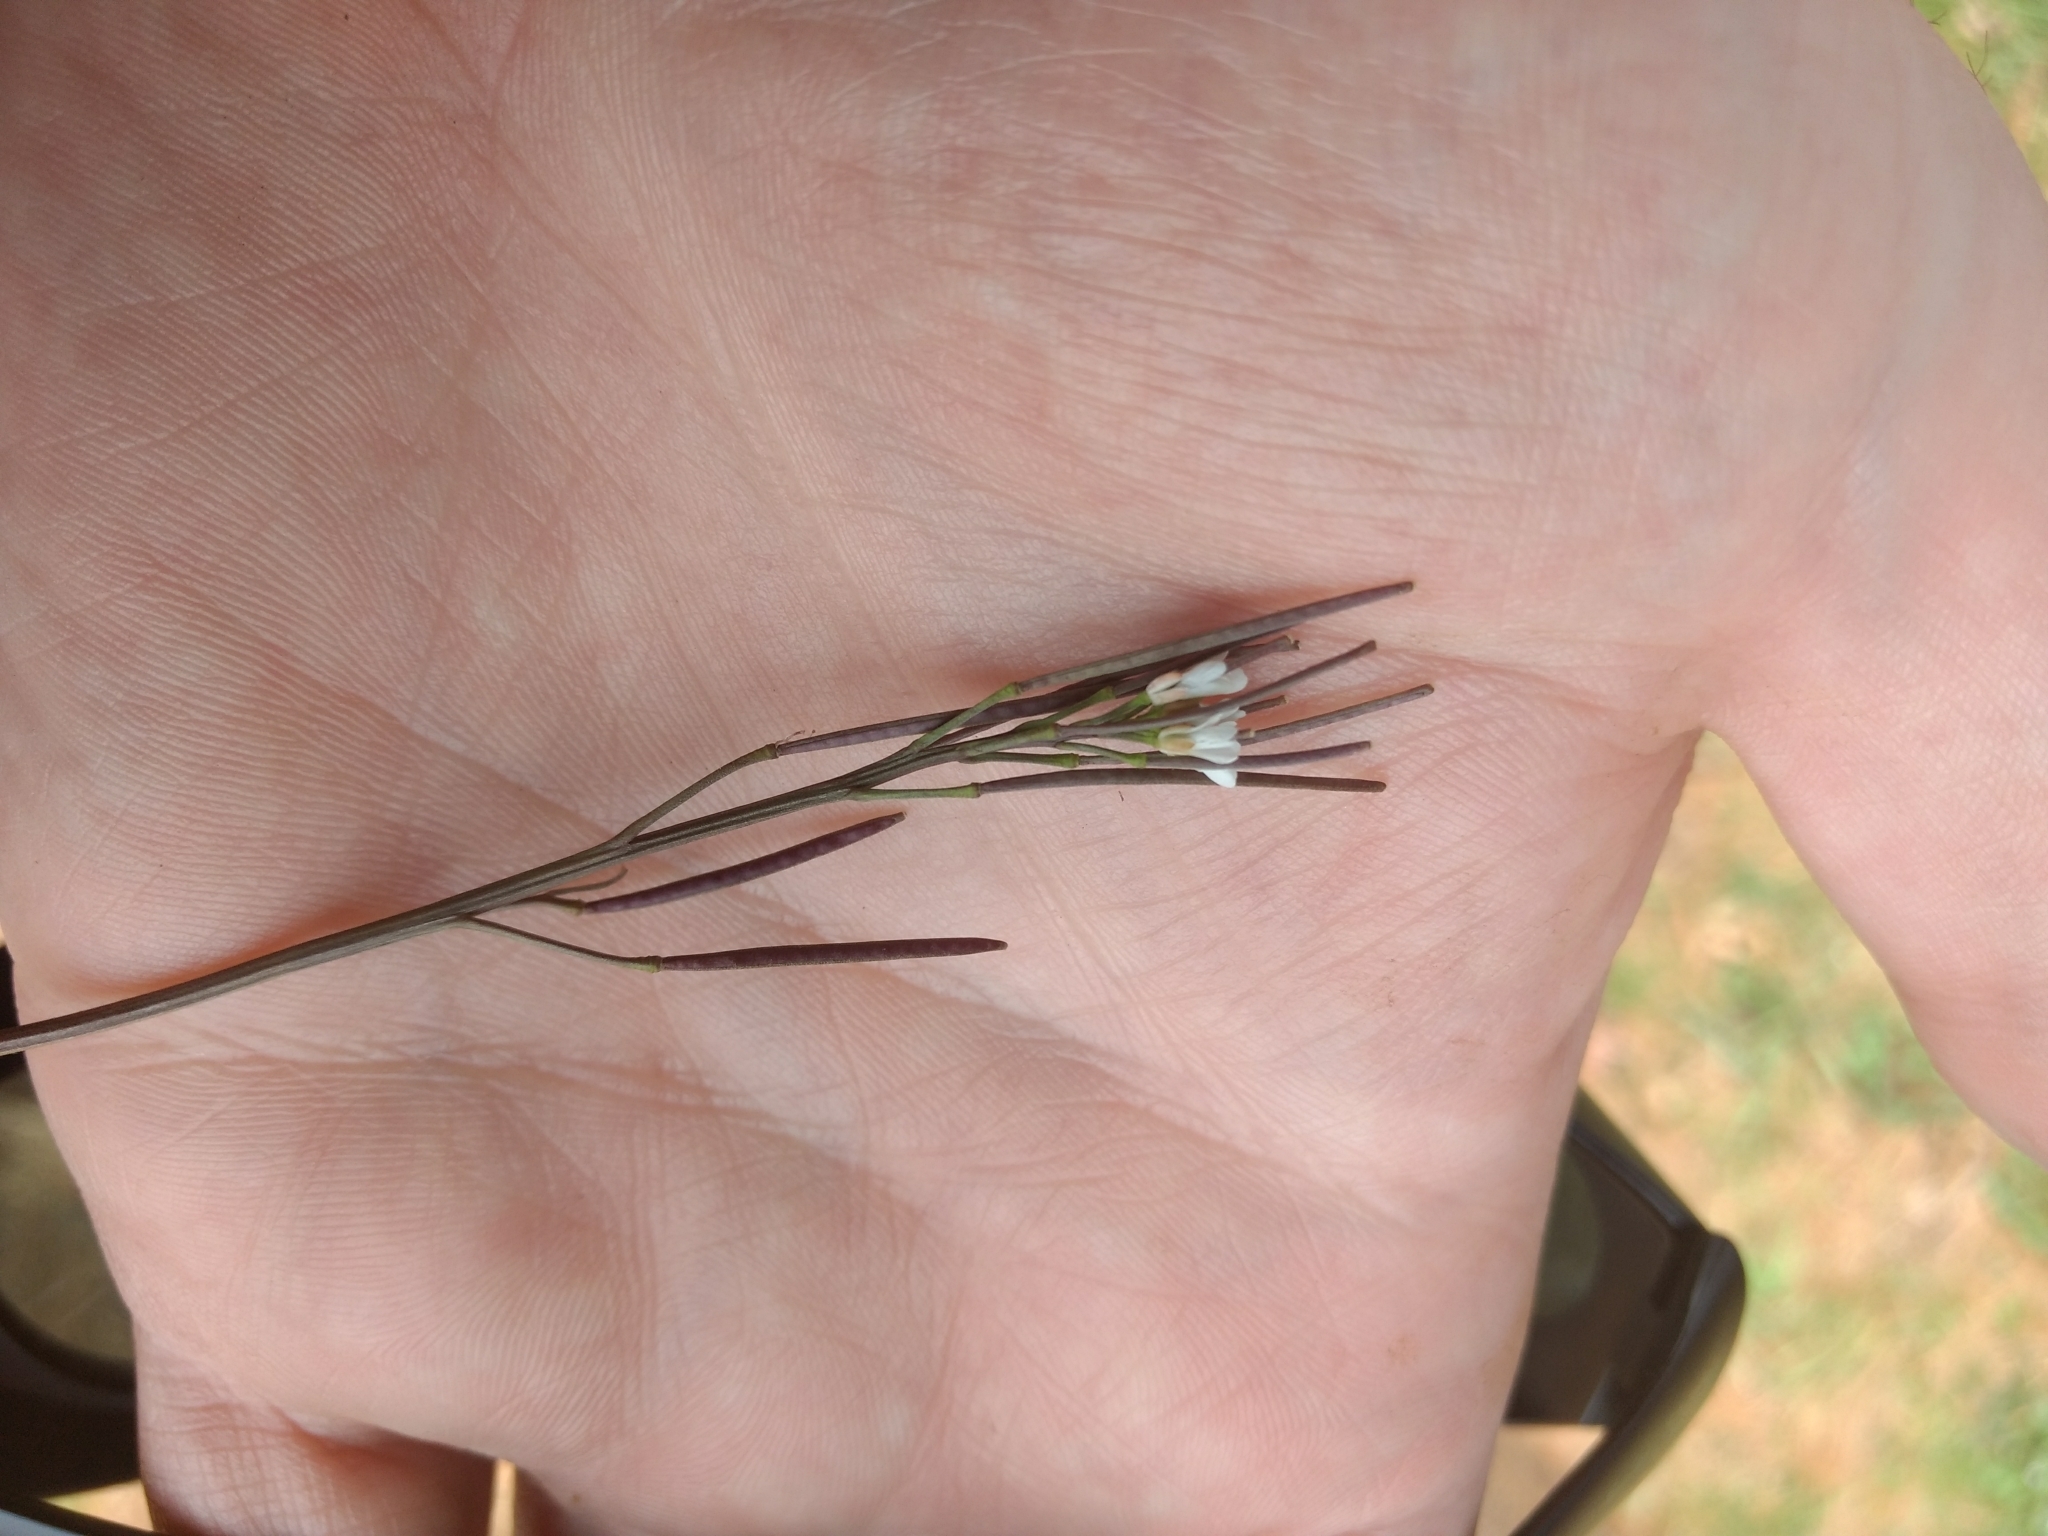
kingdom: Plantae
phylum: Tracheophyta
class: Magnoliopsida
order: Brassicales
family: Brassicaceae
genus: Cardamine
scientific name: Cardamine hirsuta
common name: Hairy bittercress
